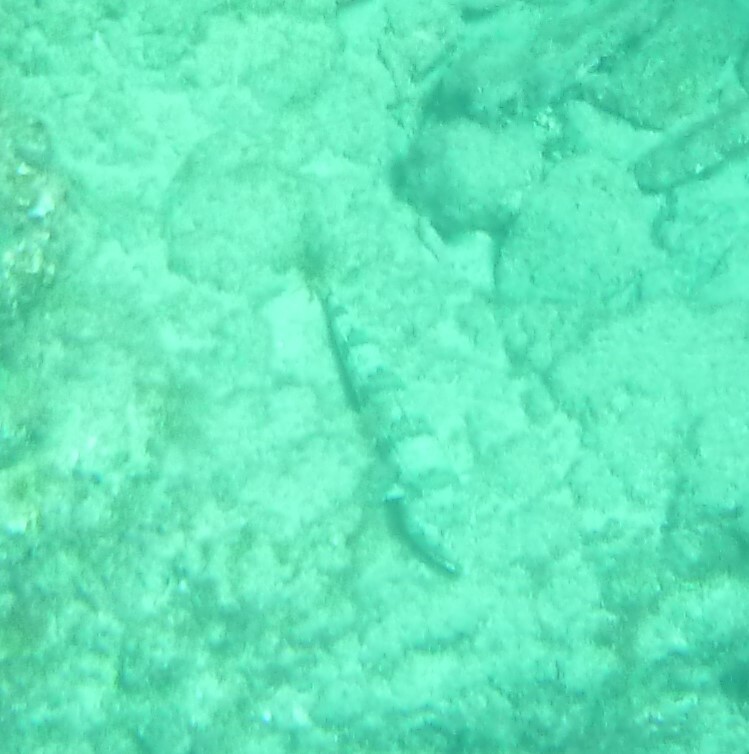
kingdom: Animalia
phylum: Chordata
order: Aulopiformes
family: Synodontidae
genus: Synodus
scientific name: Synodus synodus
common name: Red lizardfish
